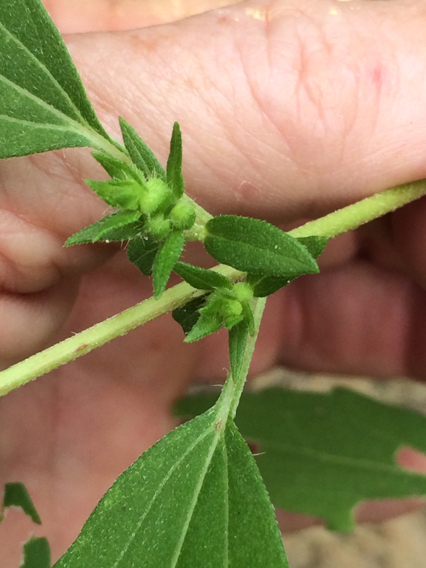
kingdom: Plantae
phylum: Tracheophyta
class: Magnoliopsida
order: Asterales
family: Asteraceae
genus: Iva
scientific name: Iva annua
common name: Marsh-elder
